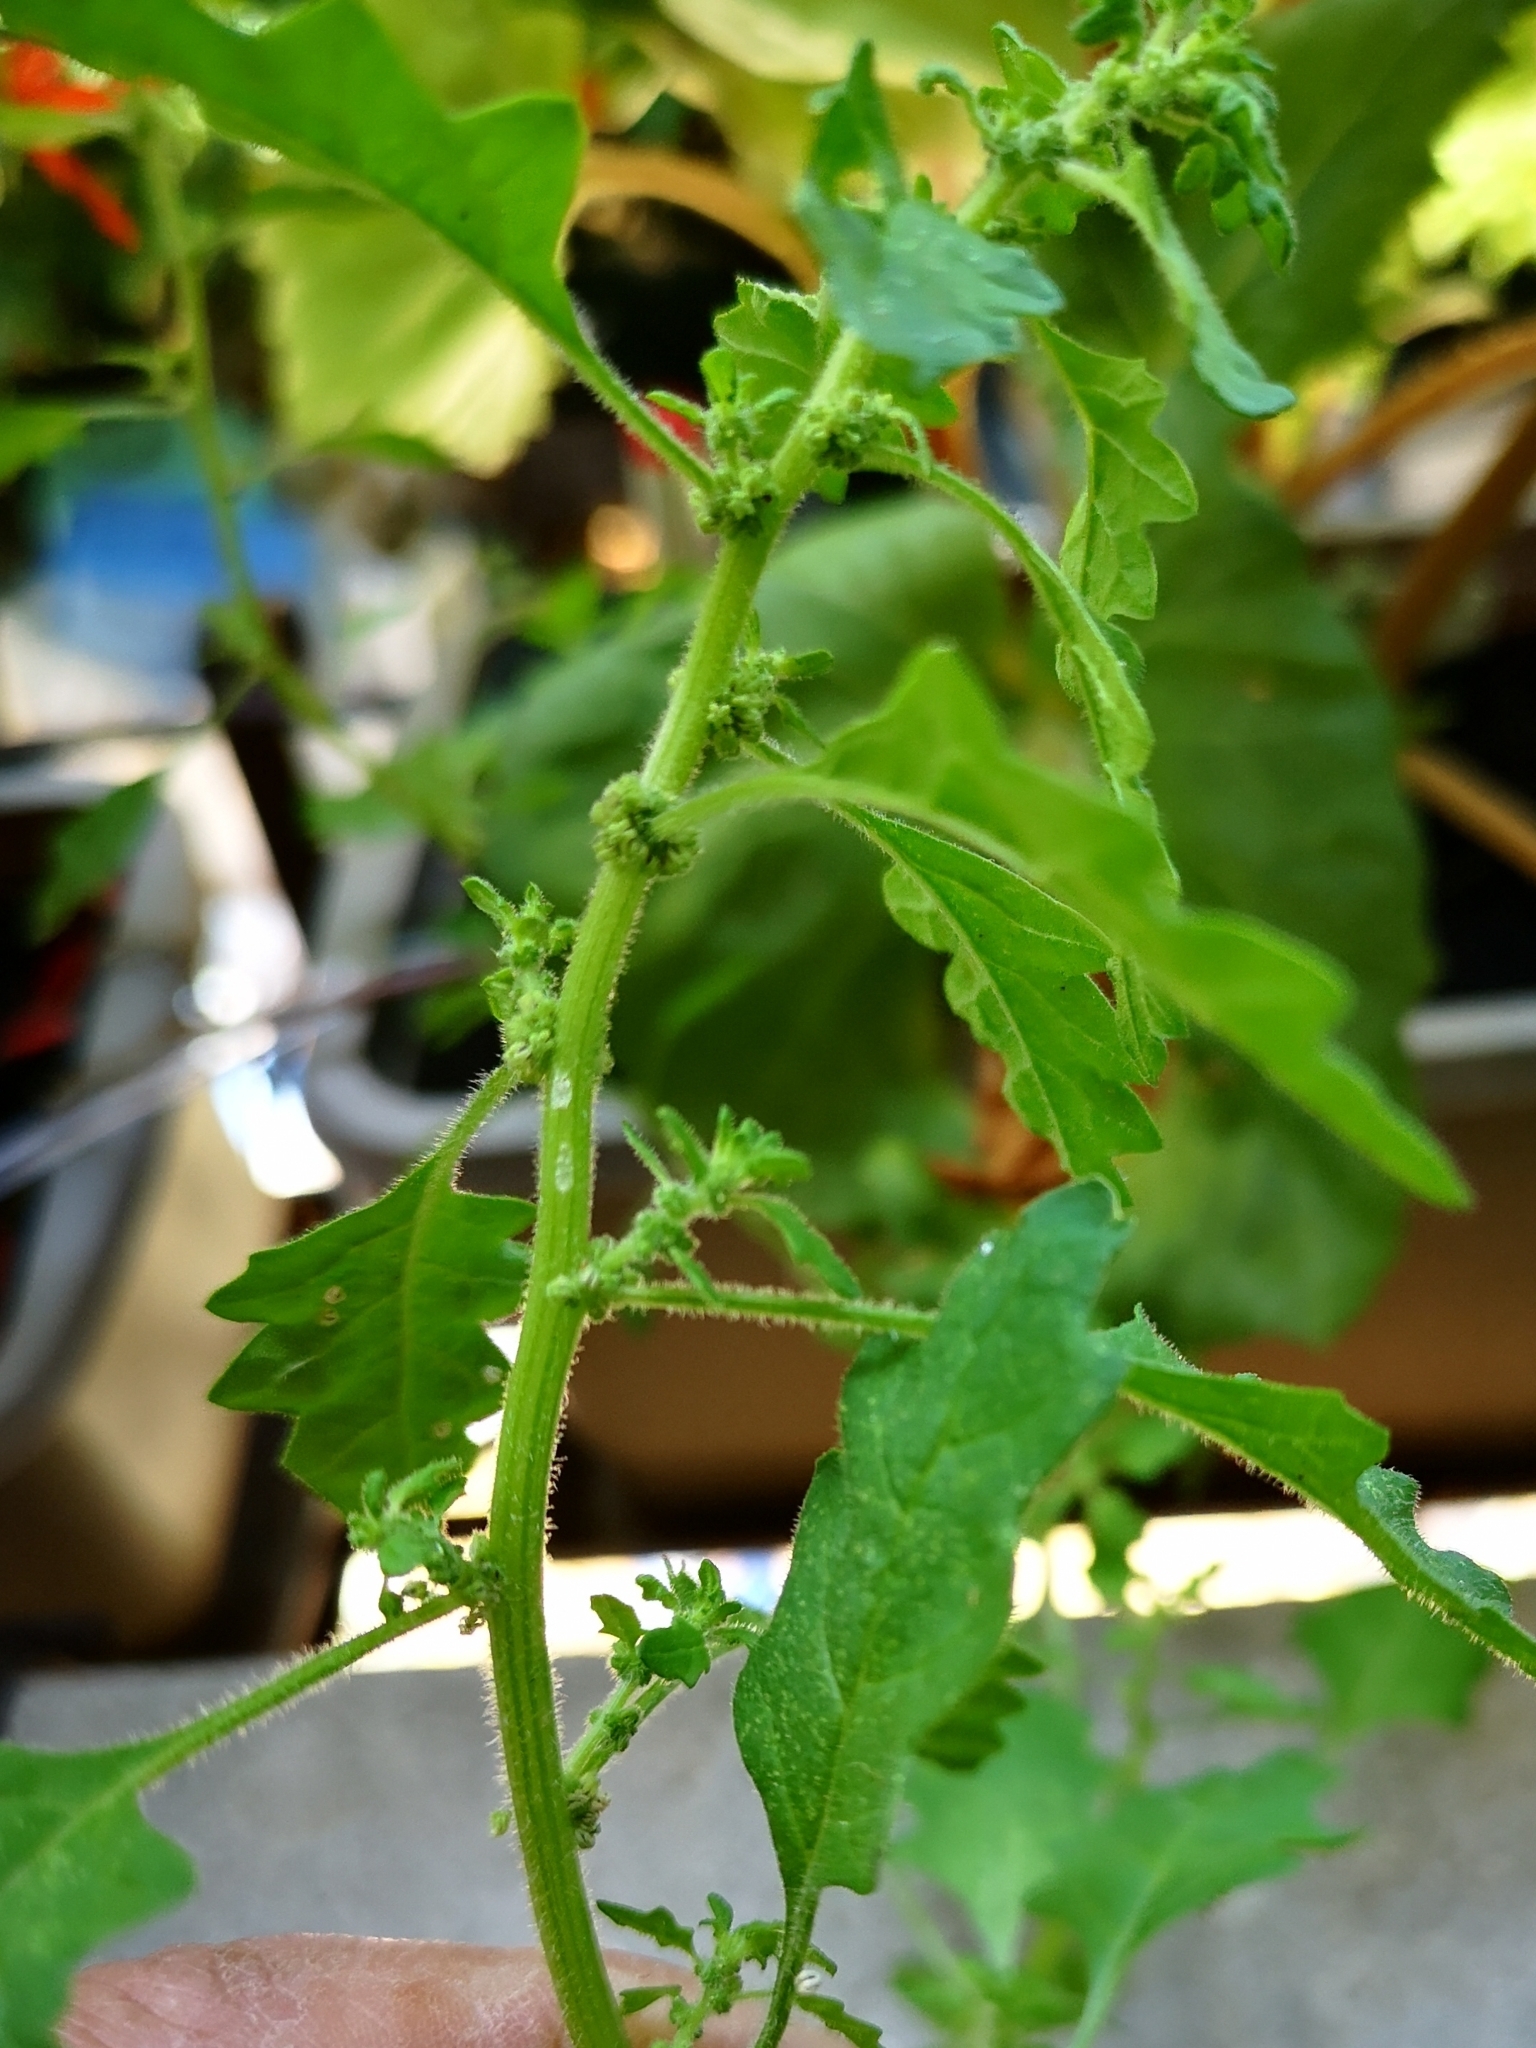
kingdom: Plantae
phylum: Tracheophyta
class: Magnoliopsida
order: Caryophyllales
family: Amaranthaceae
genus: Dysphania
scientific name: Dysphania pumilio
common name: Clammy goosefoot
